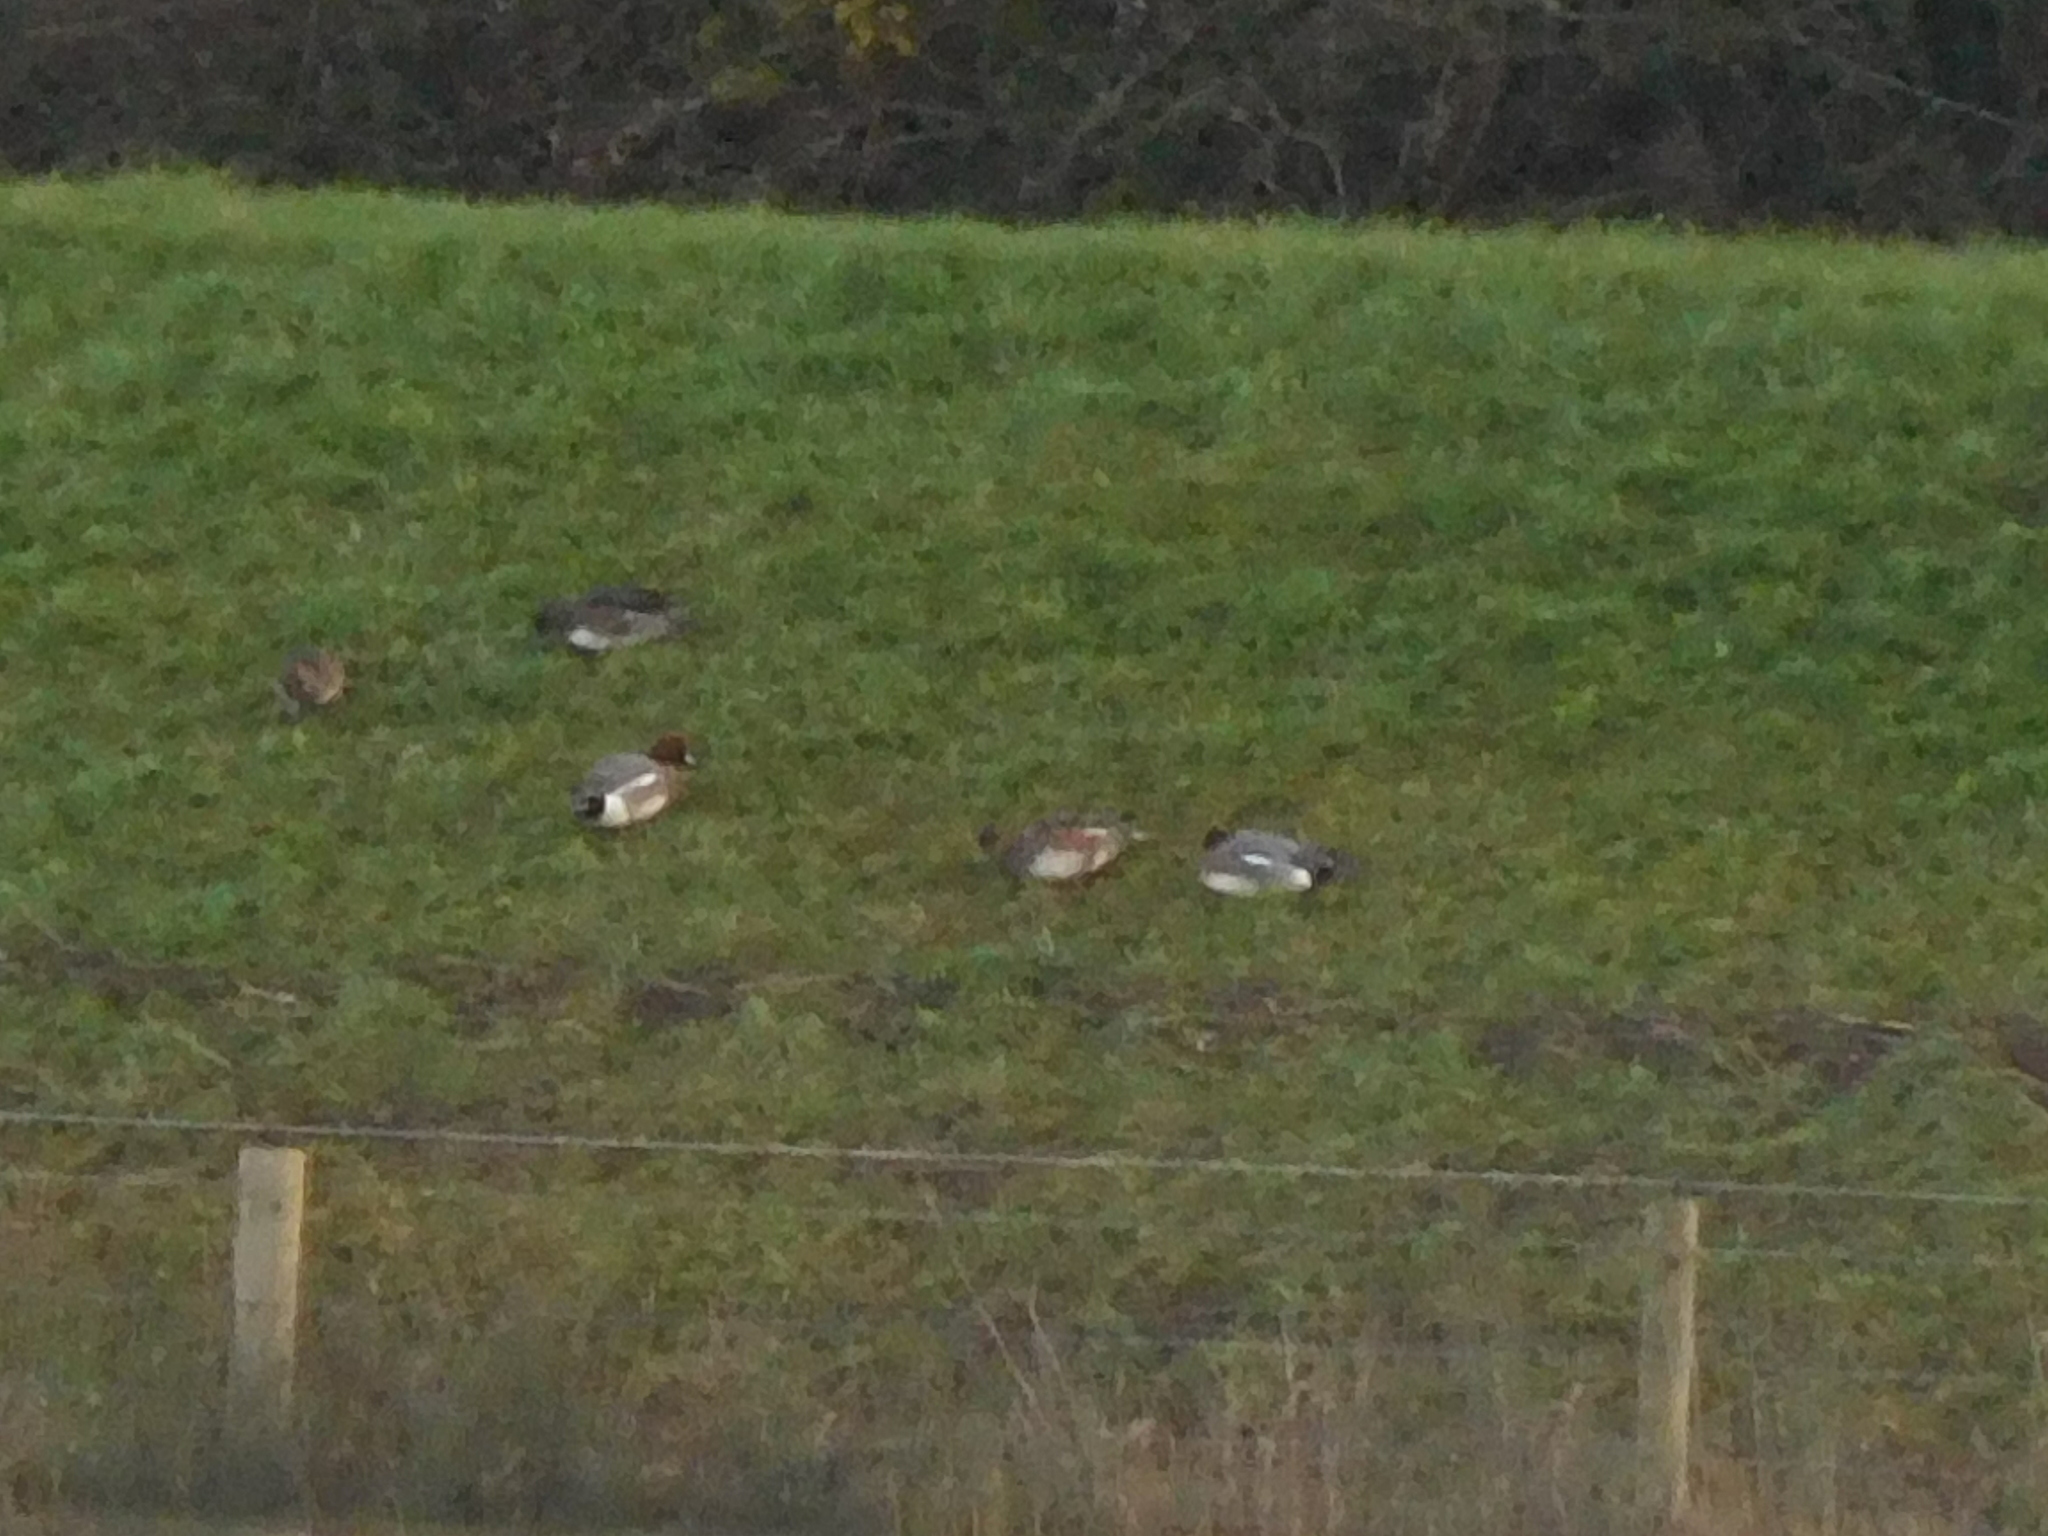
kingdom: Animalia
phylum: Chordata
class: Aves
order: Anseriformes
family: Anatidae
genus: Mareca
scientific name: Mareca penelope
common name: Eurasian wigeon
